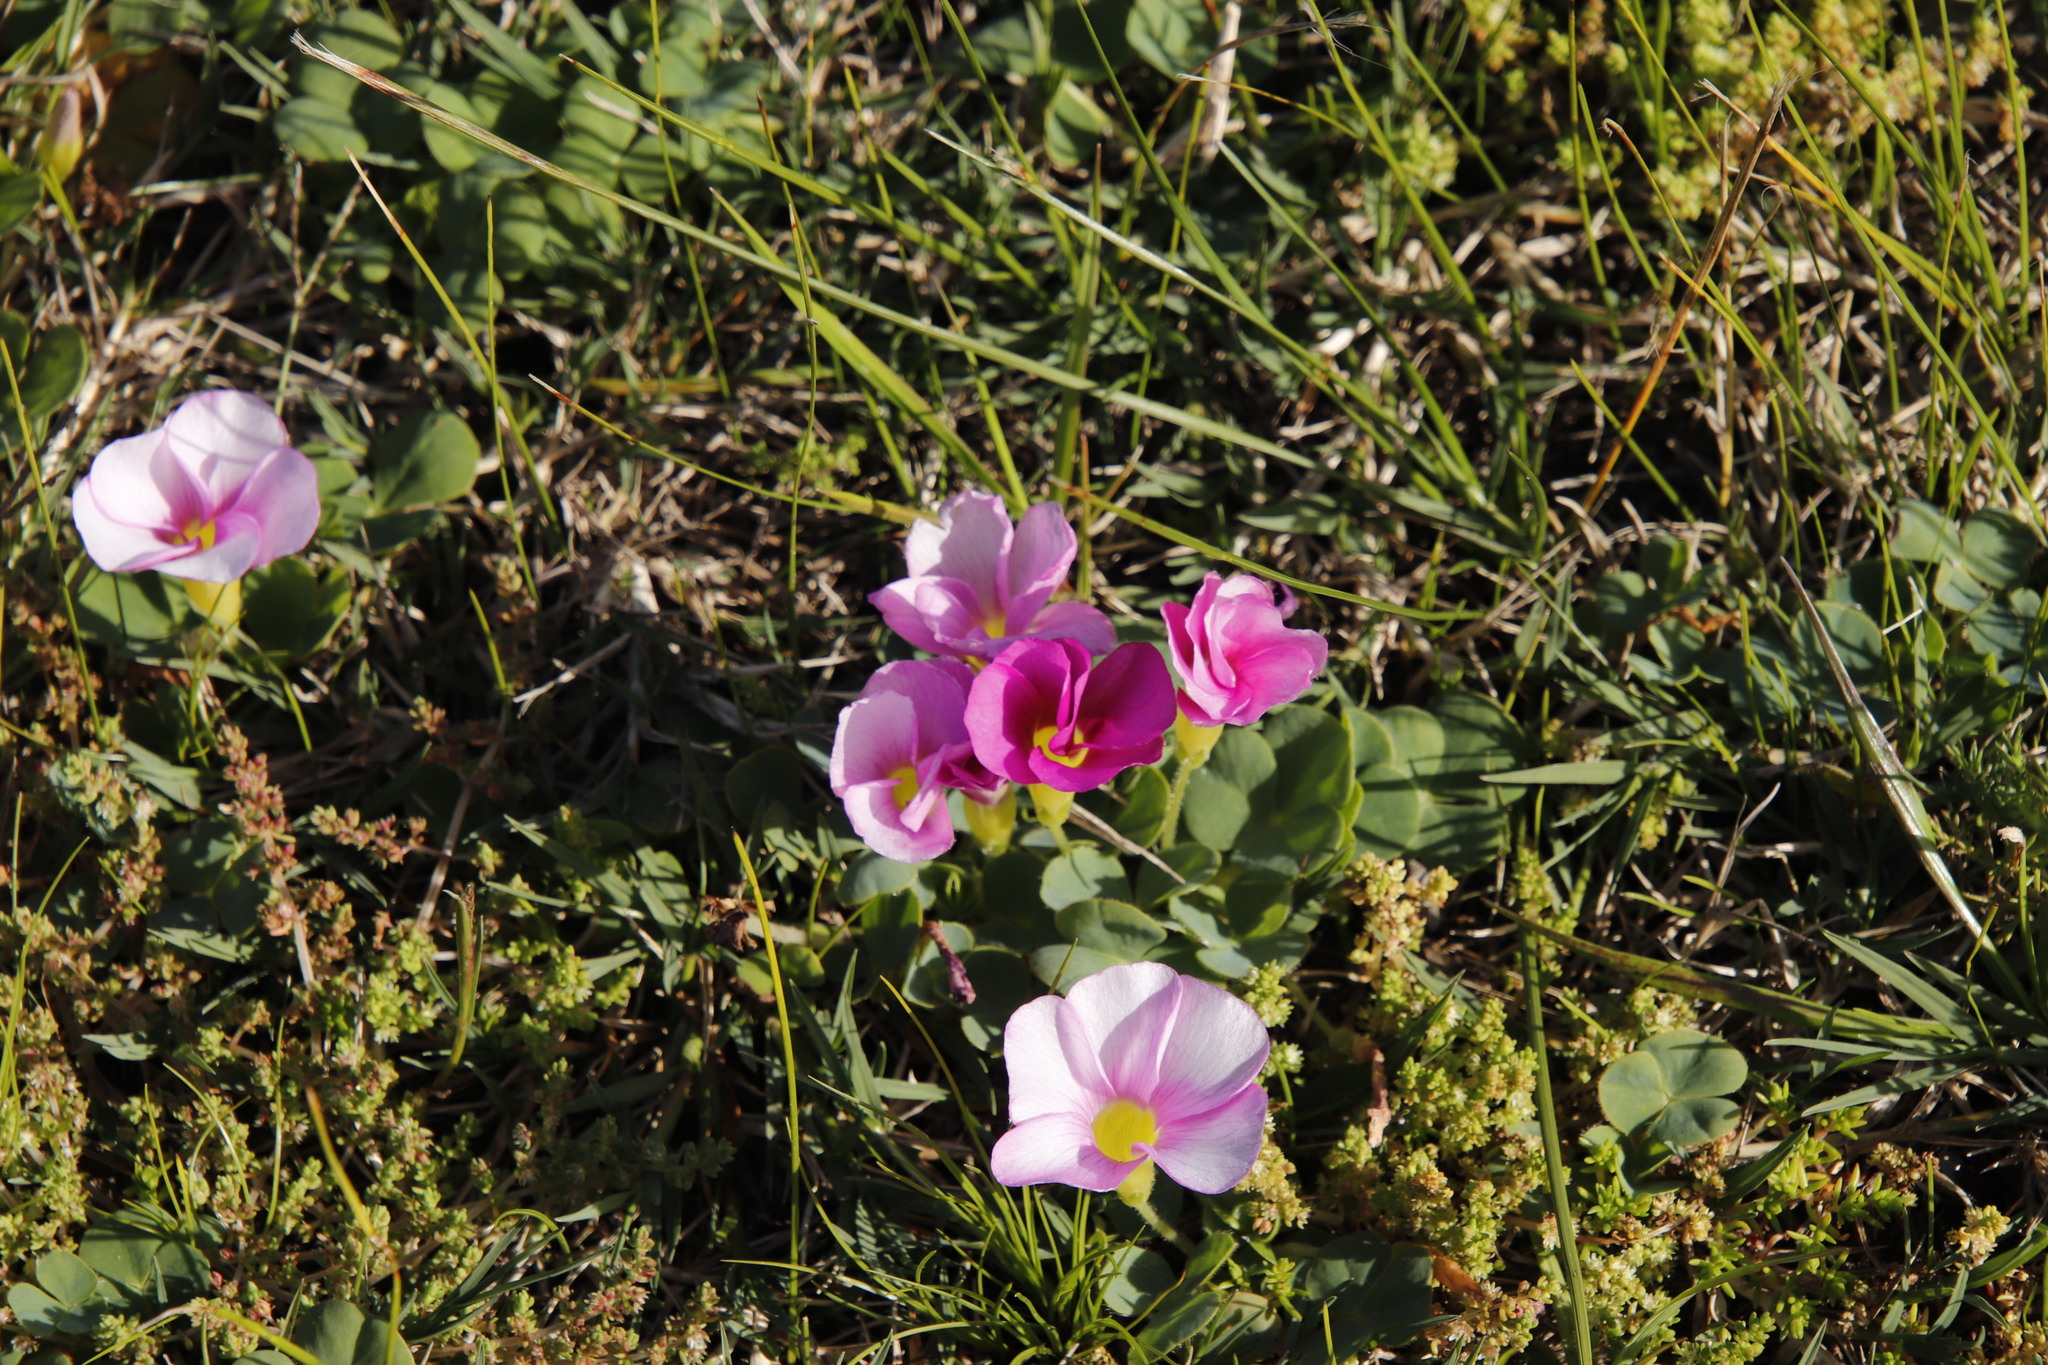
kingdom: Plantae
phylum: Tracheophyta
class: Magnoliopsida
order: Oxalidales
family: Oxalidaceae
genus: Oxalis
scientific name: Oxalis purpurea
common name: Purple woodsorrel
